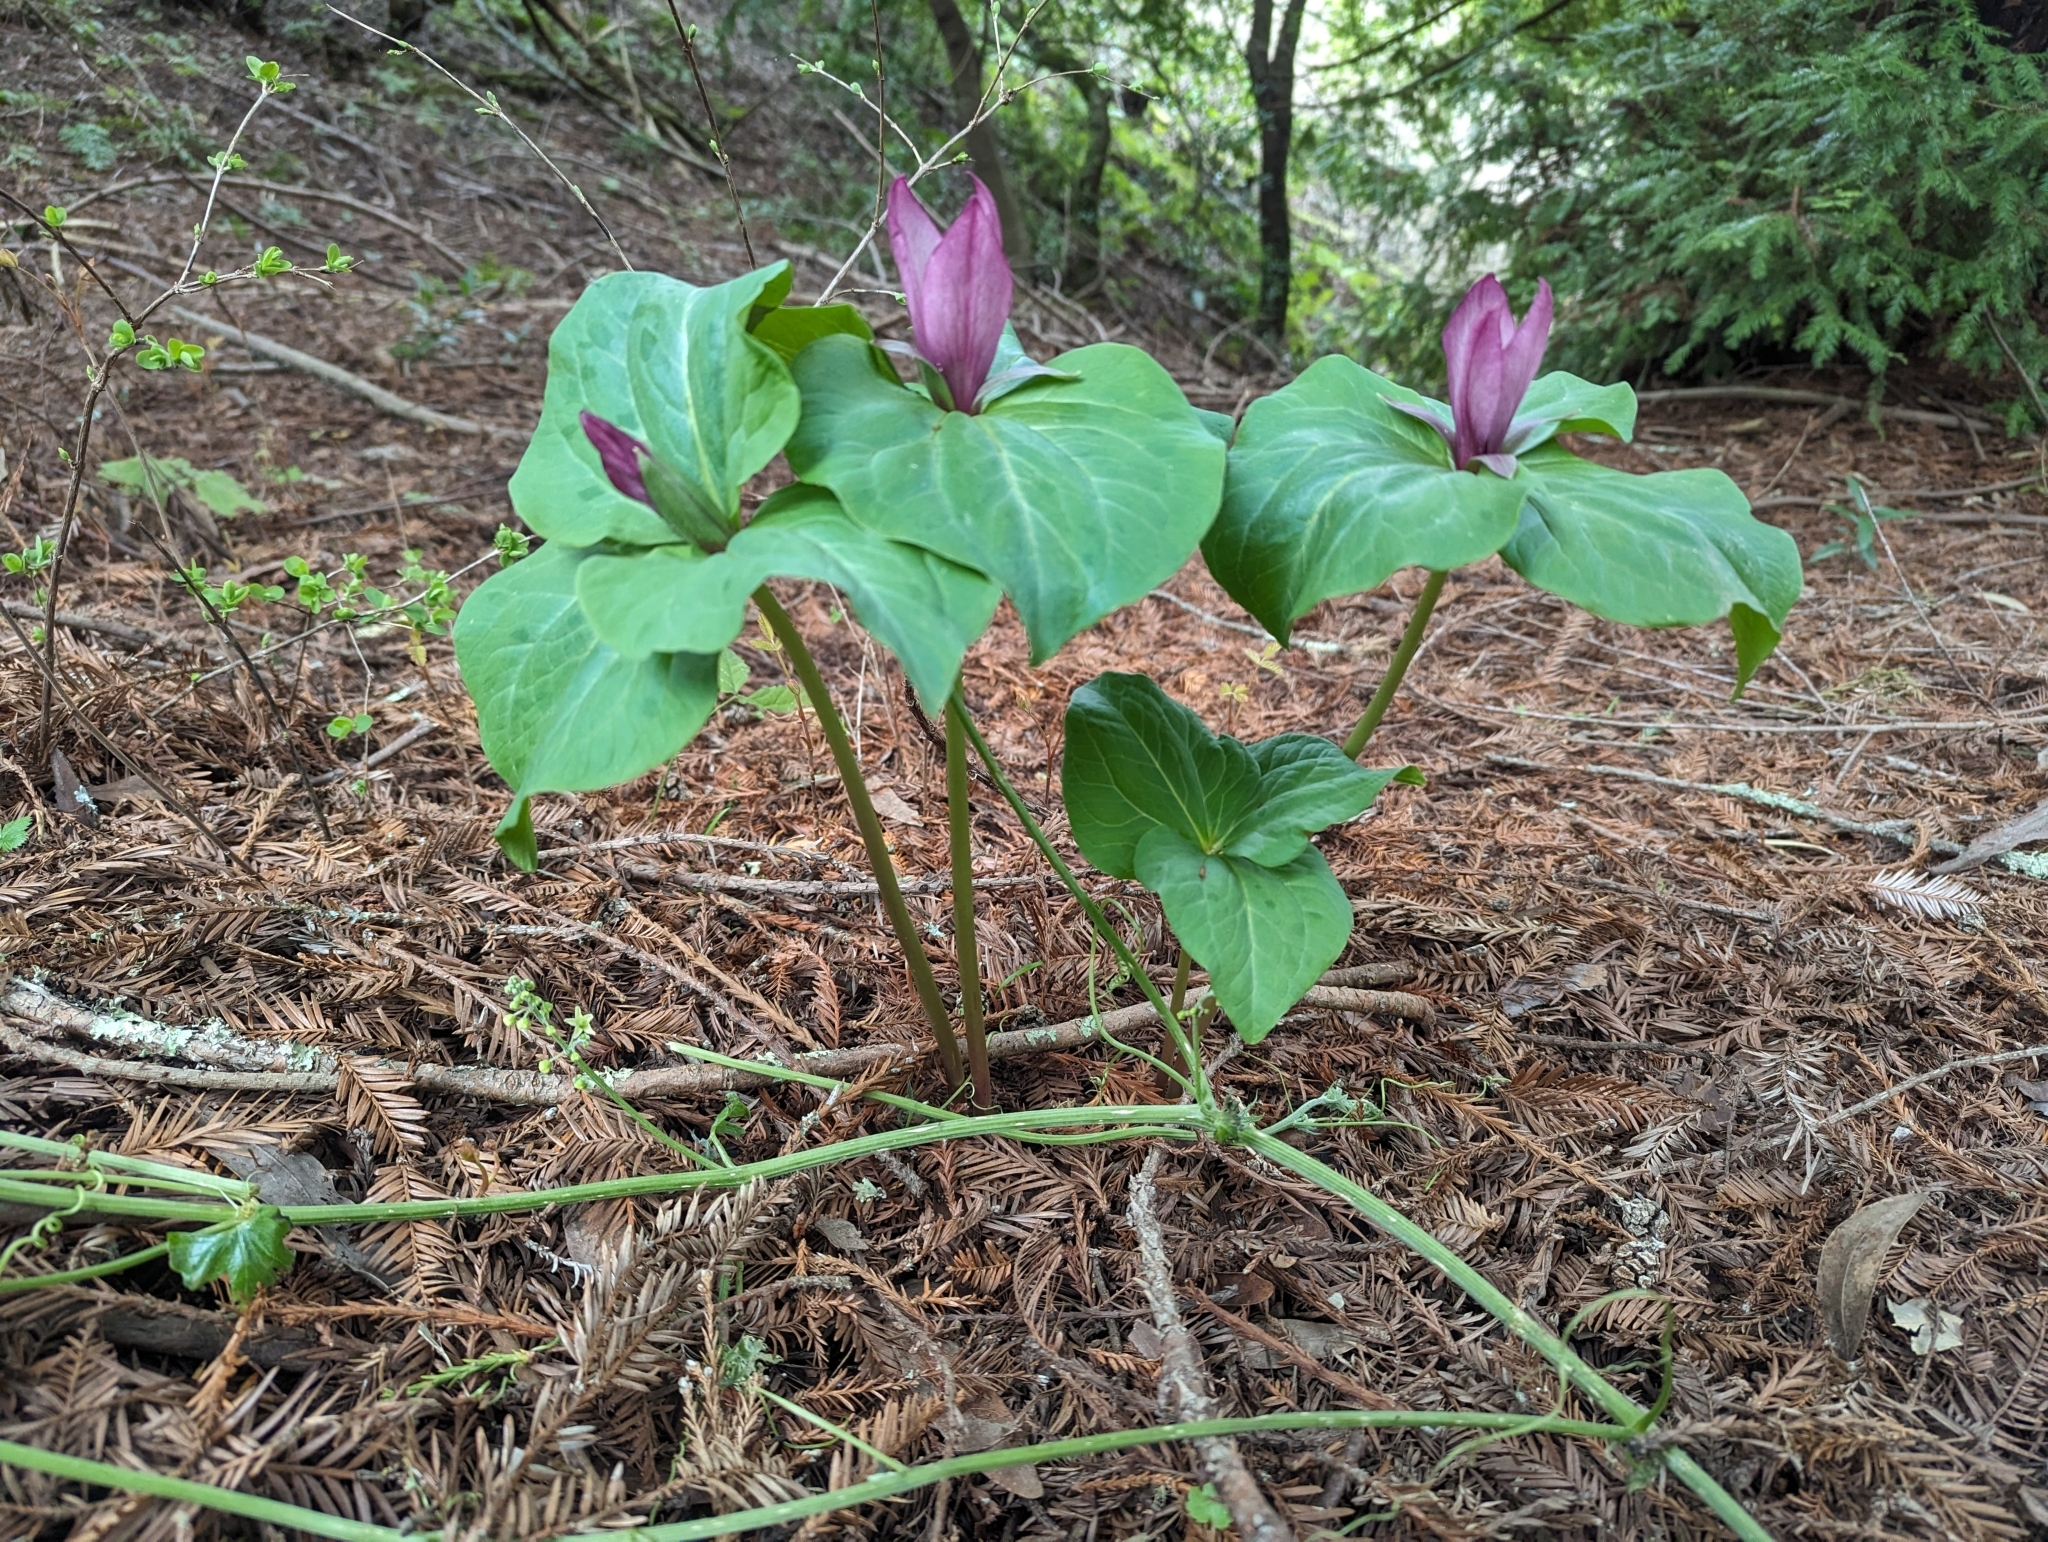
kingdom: Plantae
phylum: Tracheophyta
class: Liliopsida
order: Liliales
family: Melanthiaceae
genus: Trillium
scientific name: Trillium chloropetalum
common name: Giant trillium
